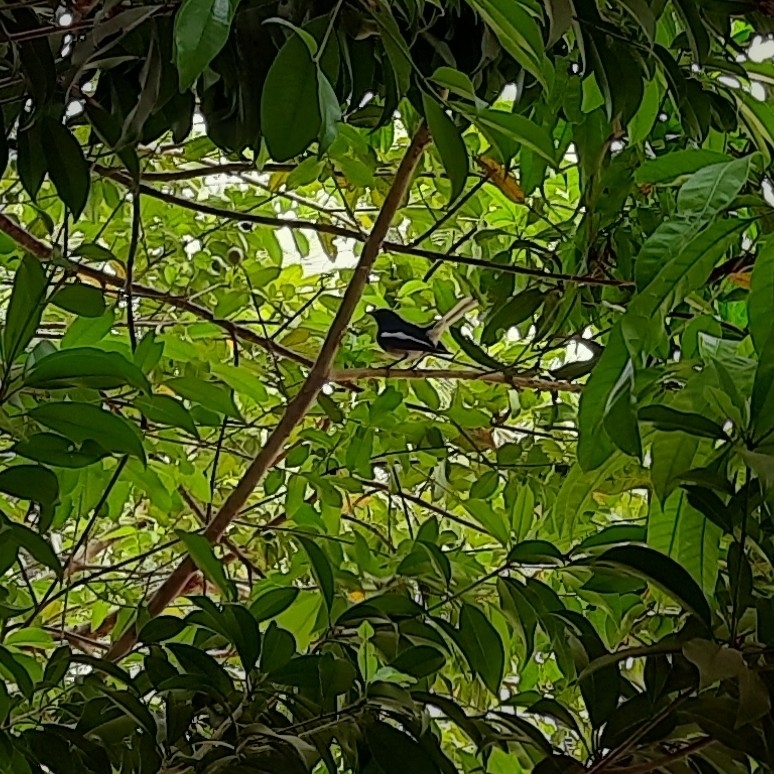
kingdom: Animalia
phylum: Chordata
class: Aves
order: Passeriformes
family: Muscicapidae
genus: Copsychus
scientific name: Copsychus saularis
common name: Oriental magpie-robin
